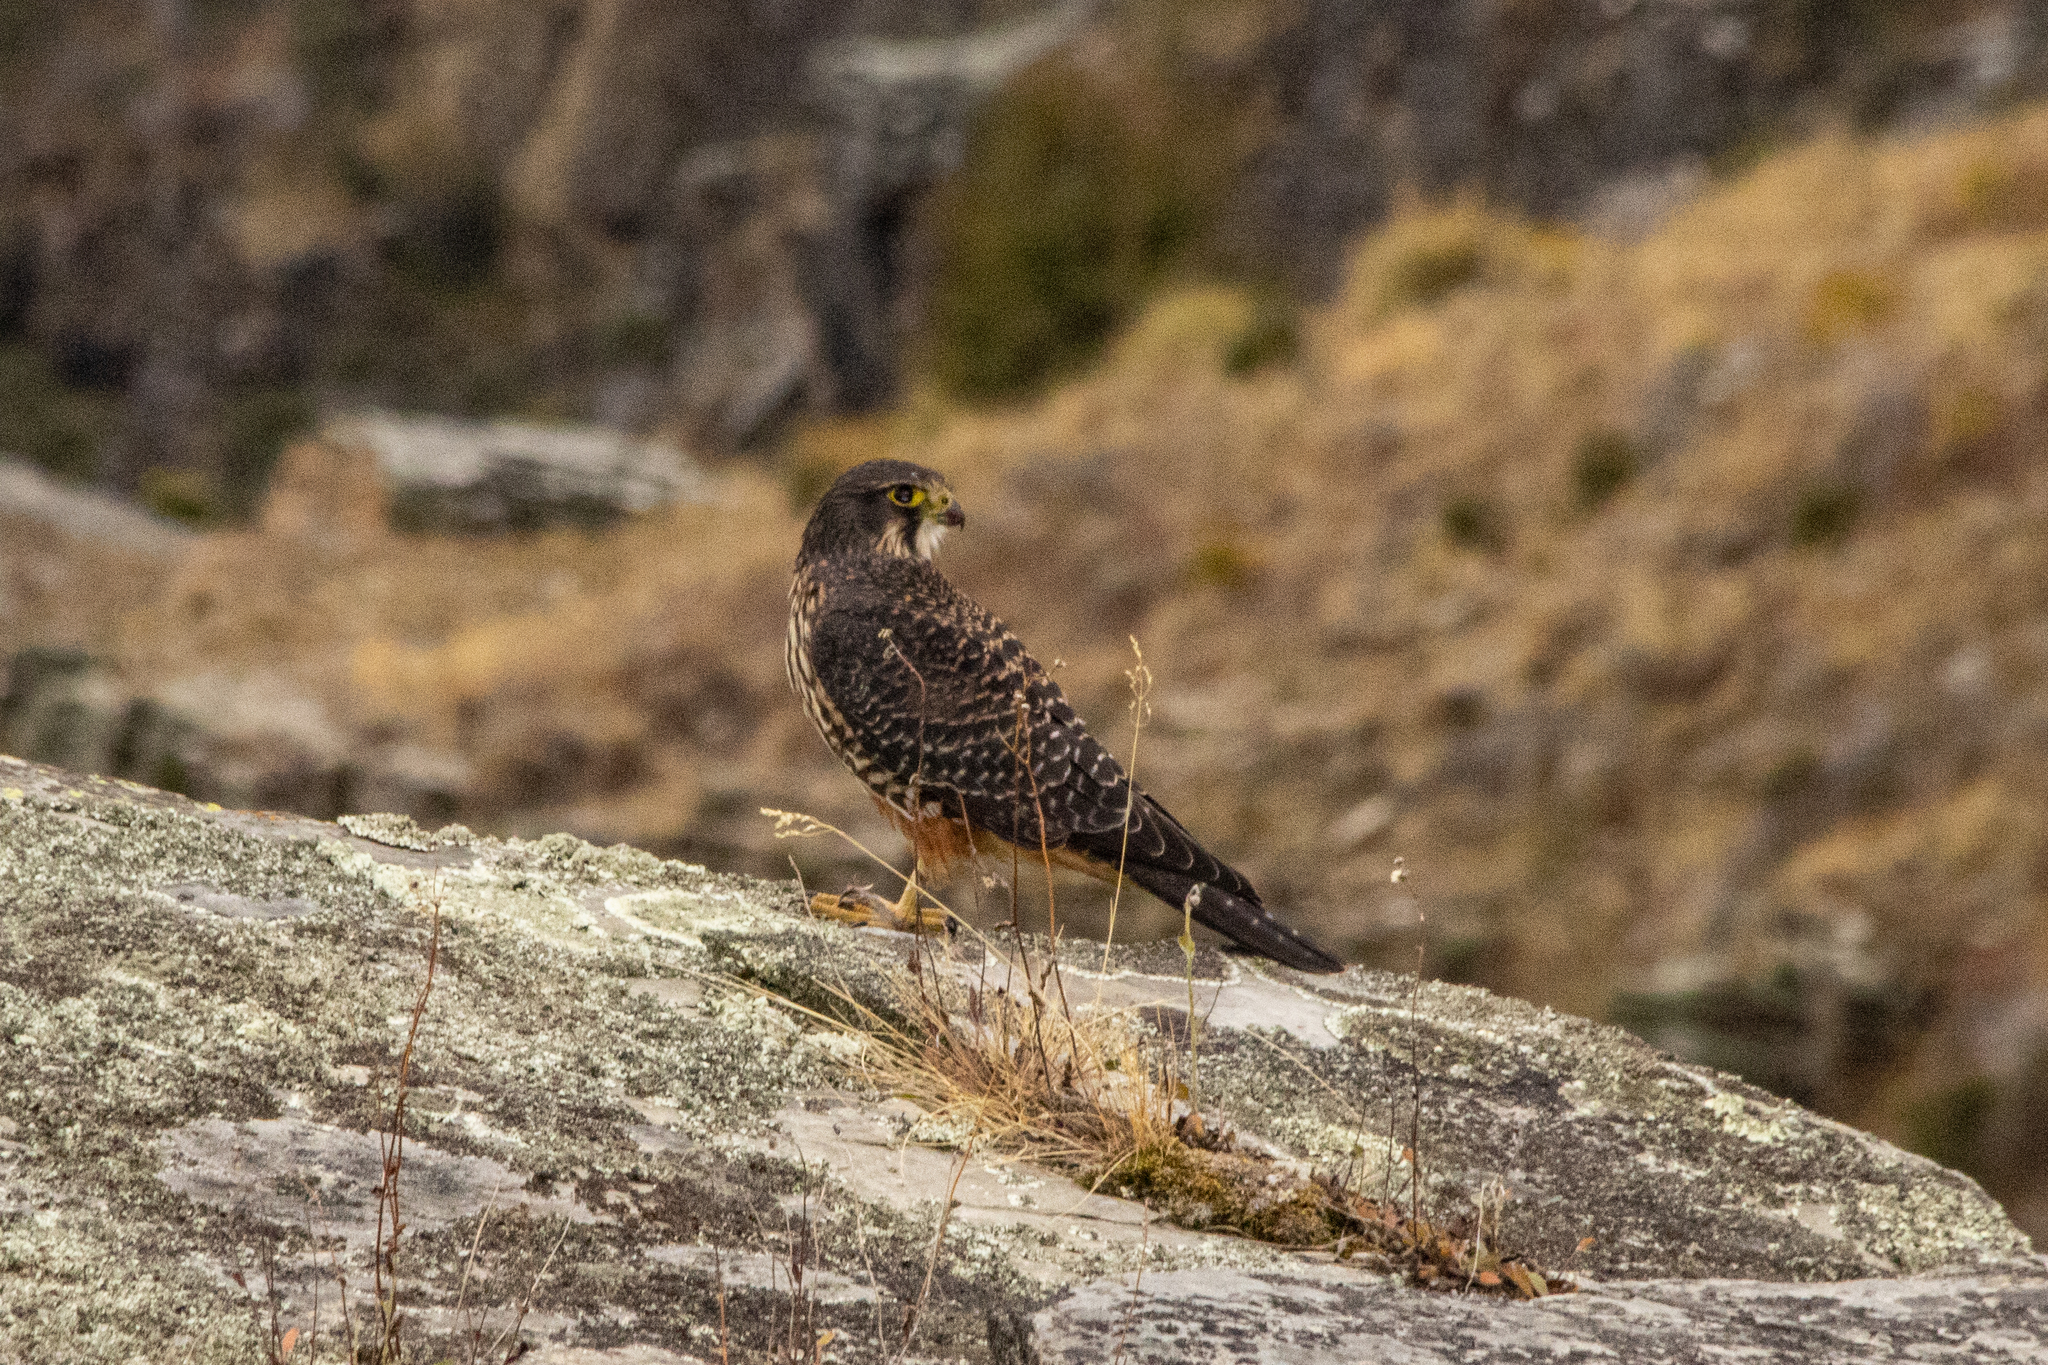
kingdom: Animalia
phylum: Chordata
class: Aves
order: Falconiformes
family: Falconidae
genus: Falco
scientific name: Falco novaeseelandiae
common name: New zealand falcon
